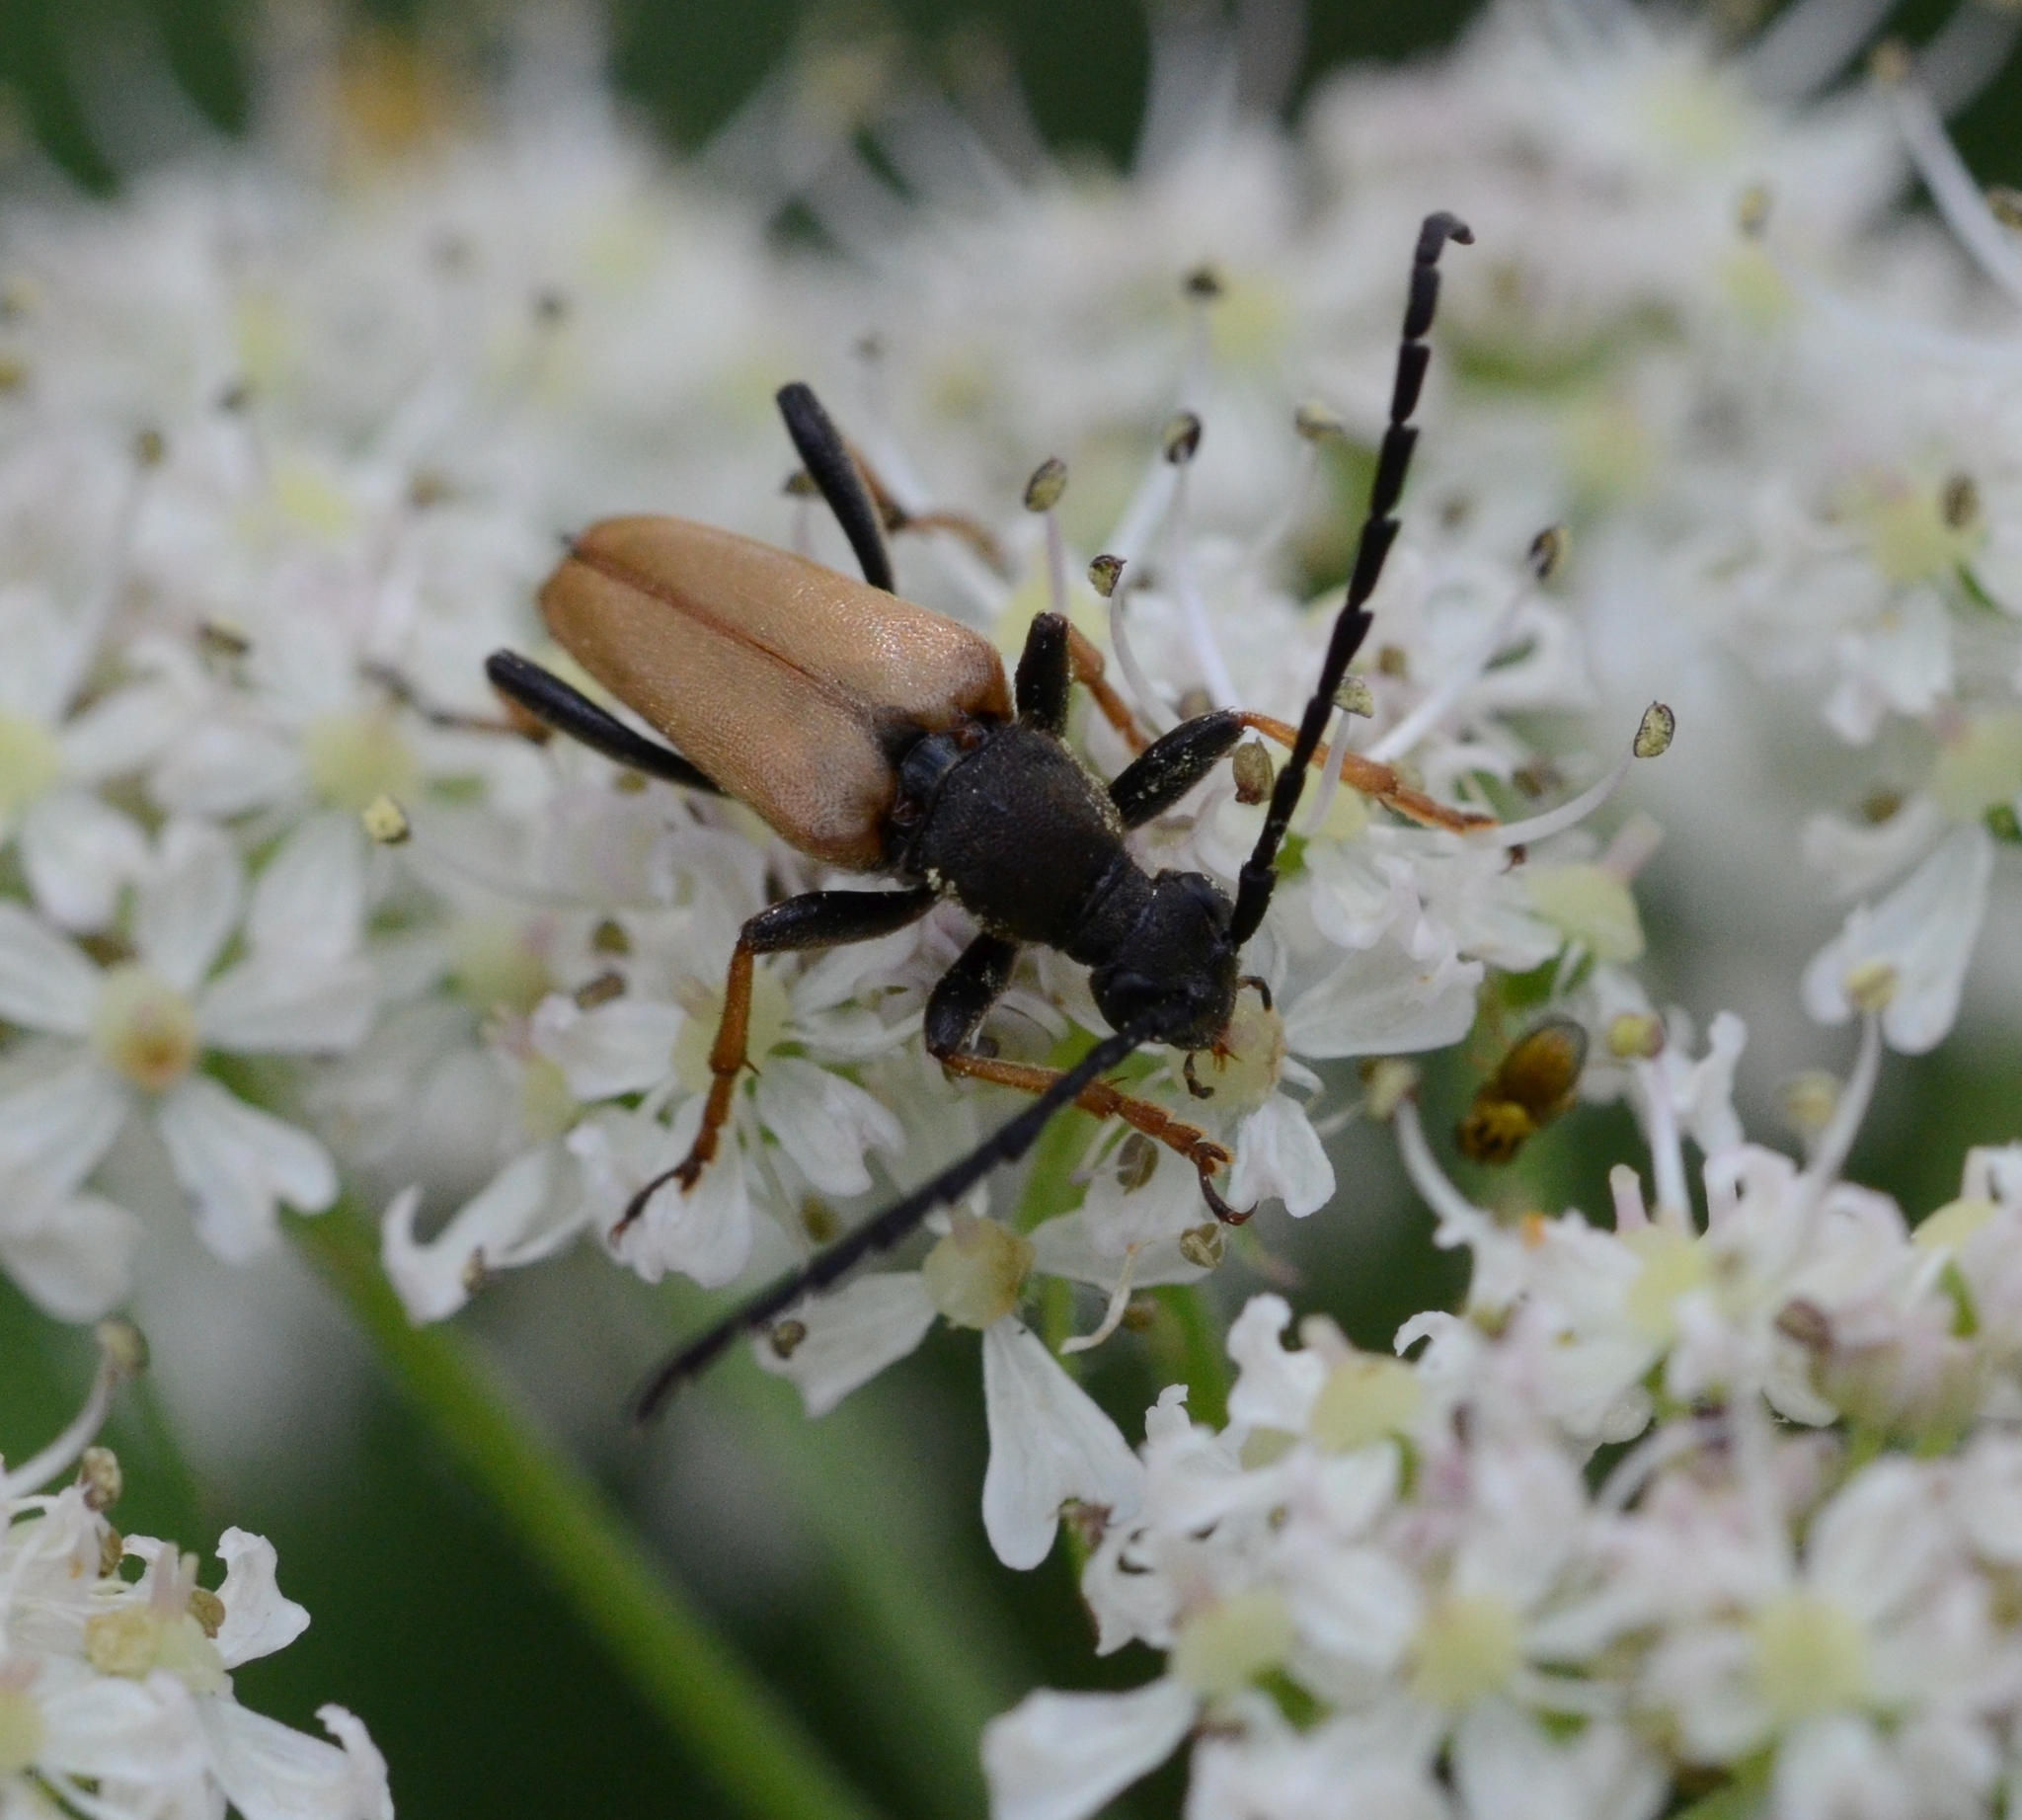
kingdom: Animalia
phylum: Arthropoda
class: Insecta
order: Coleoptera
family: Cerambycidae
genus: Stictoleptura
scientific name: Stictoleptura rubra
